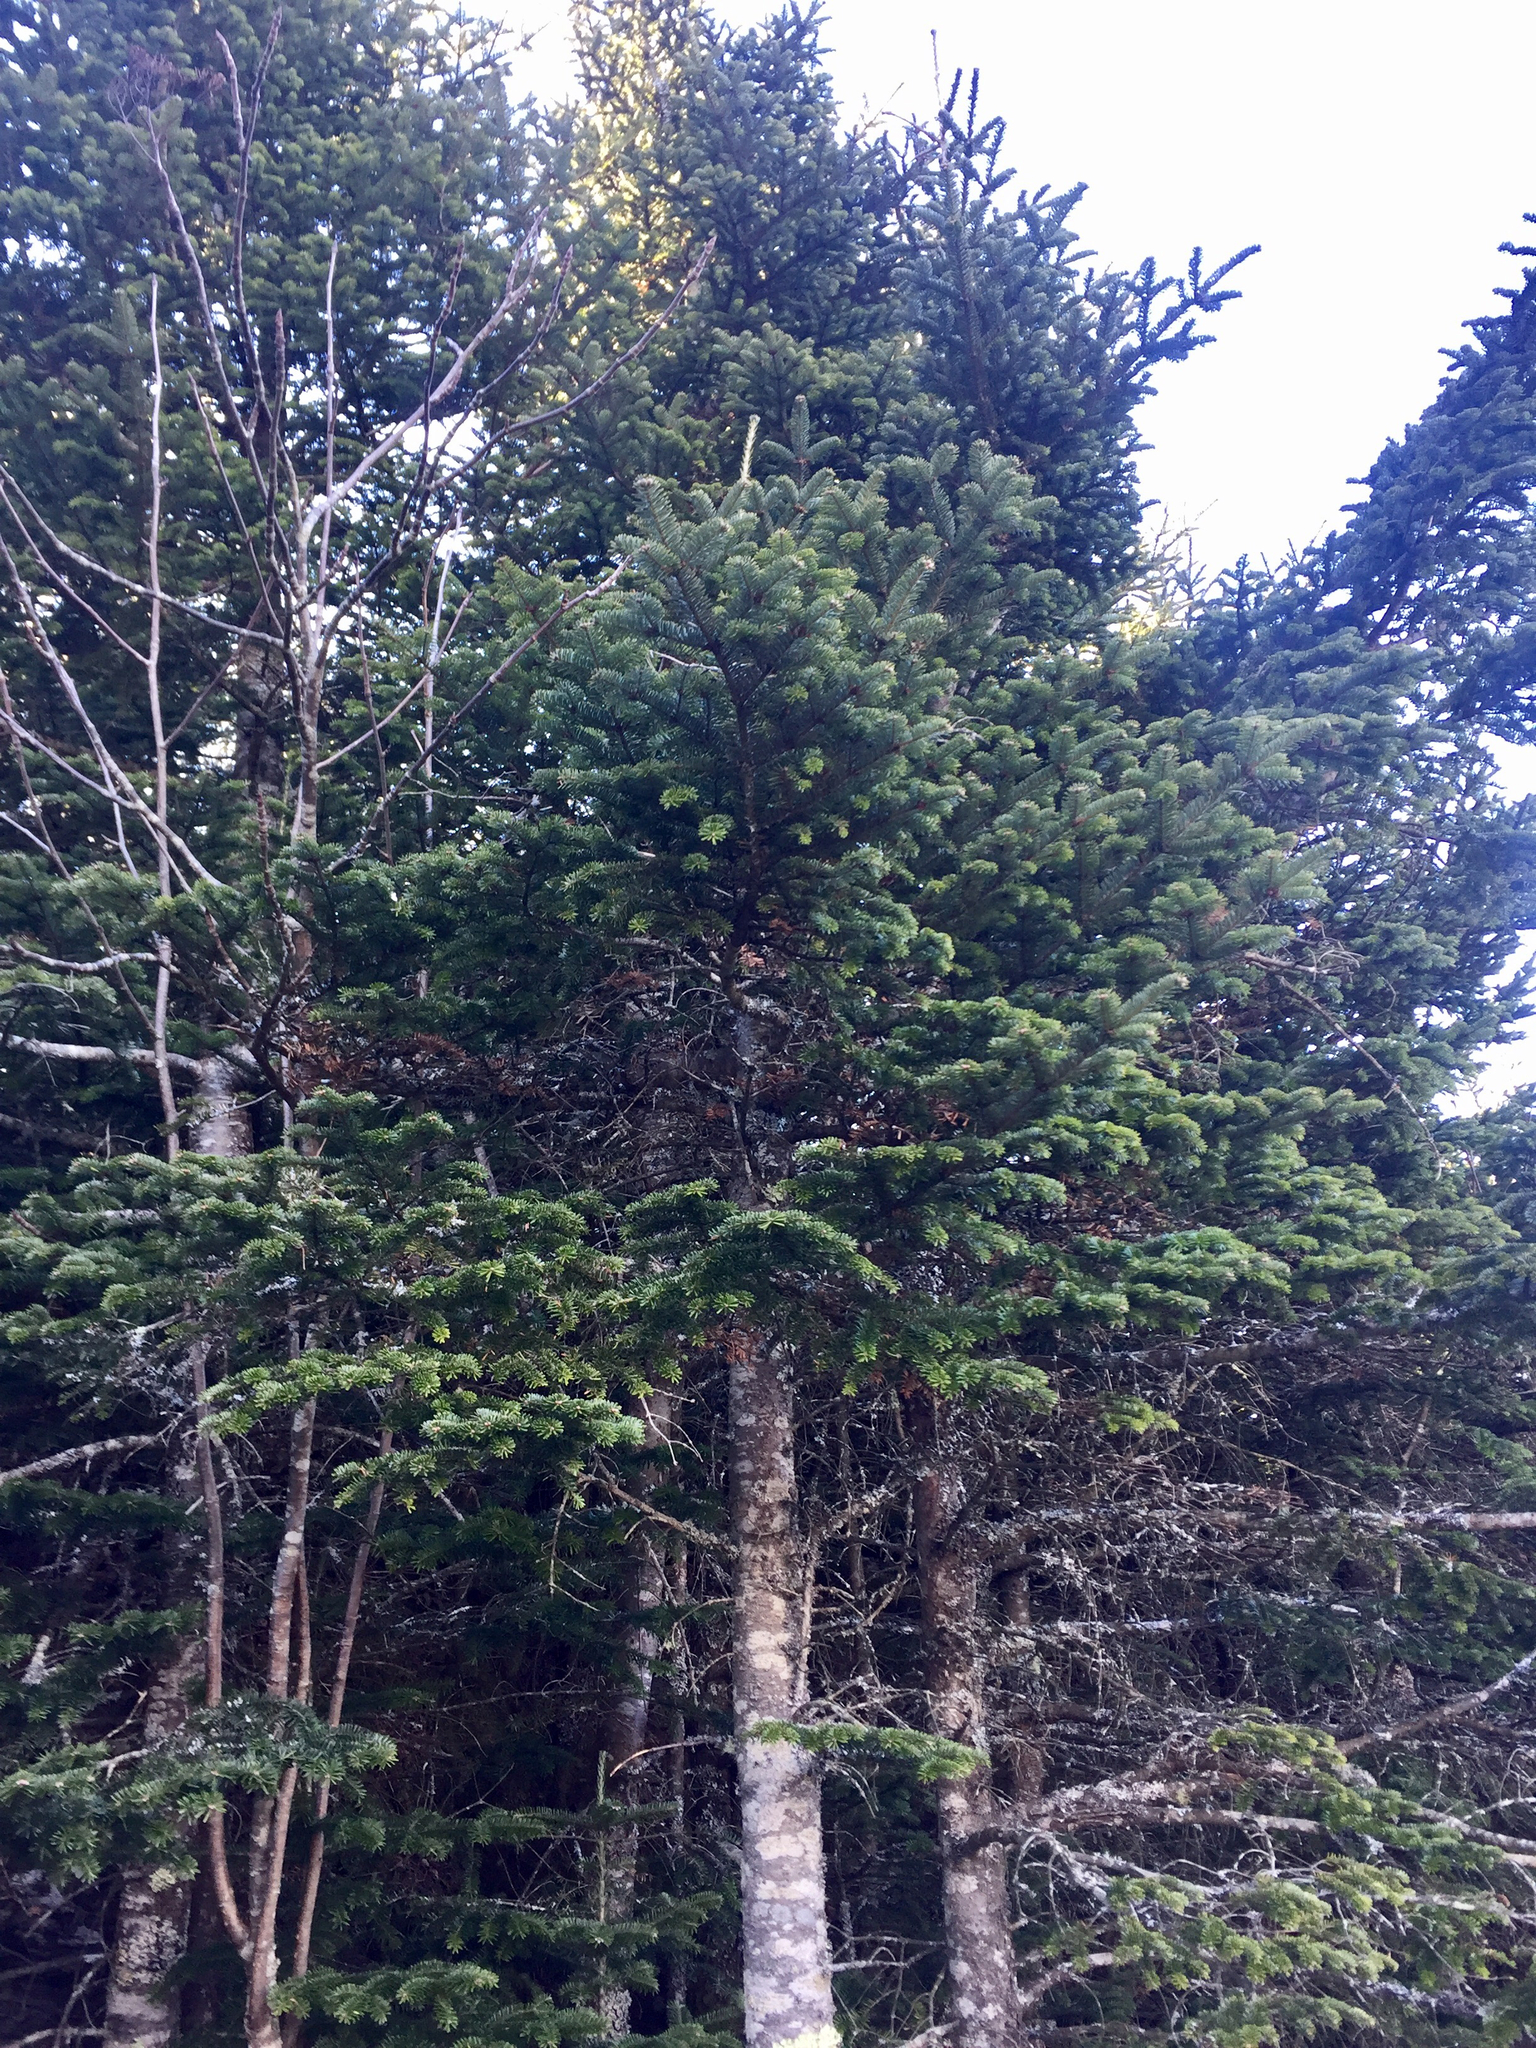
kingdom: Plantae
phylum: Tracheophyta
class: Pinopsida
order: Pinales
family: Pinaceae
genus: Abies
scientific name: Abies fraseri
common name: Fraser fir
